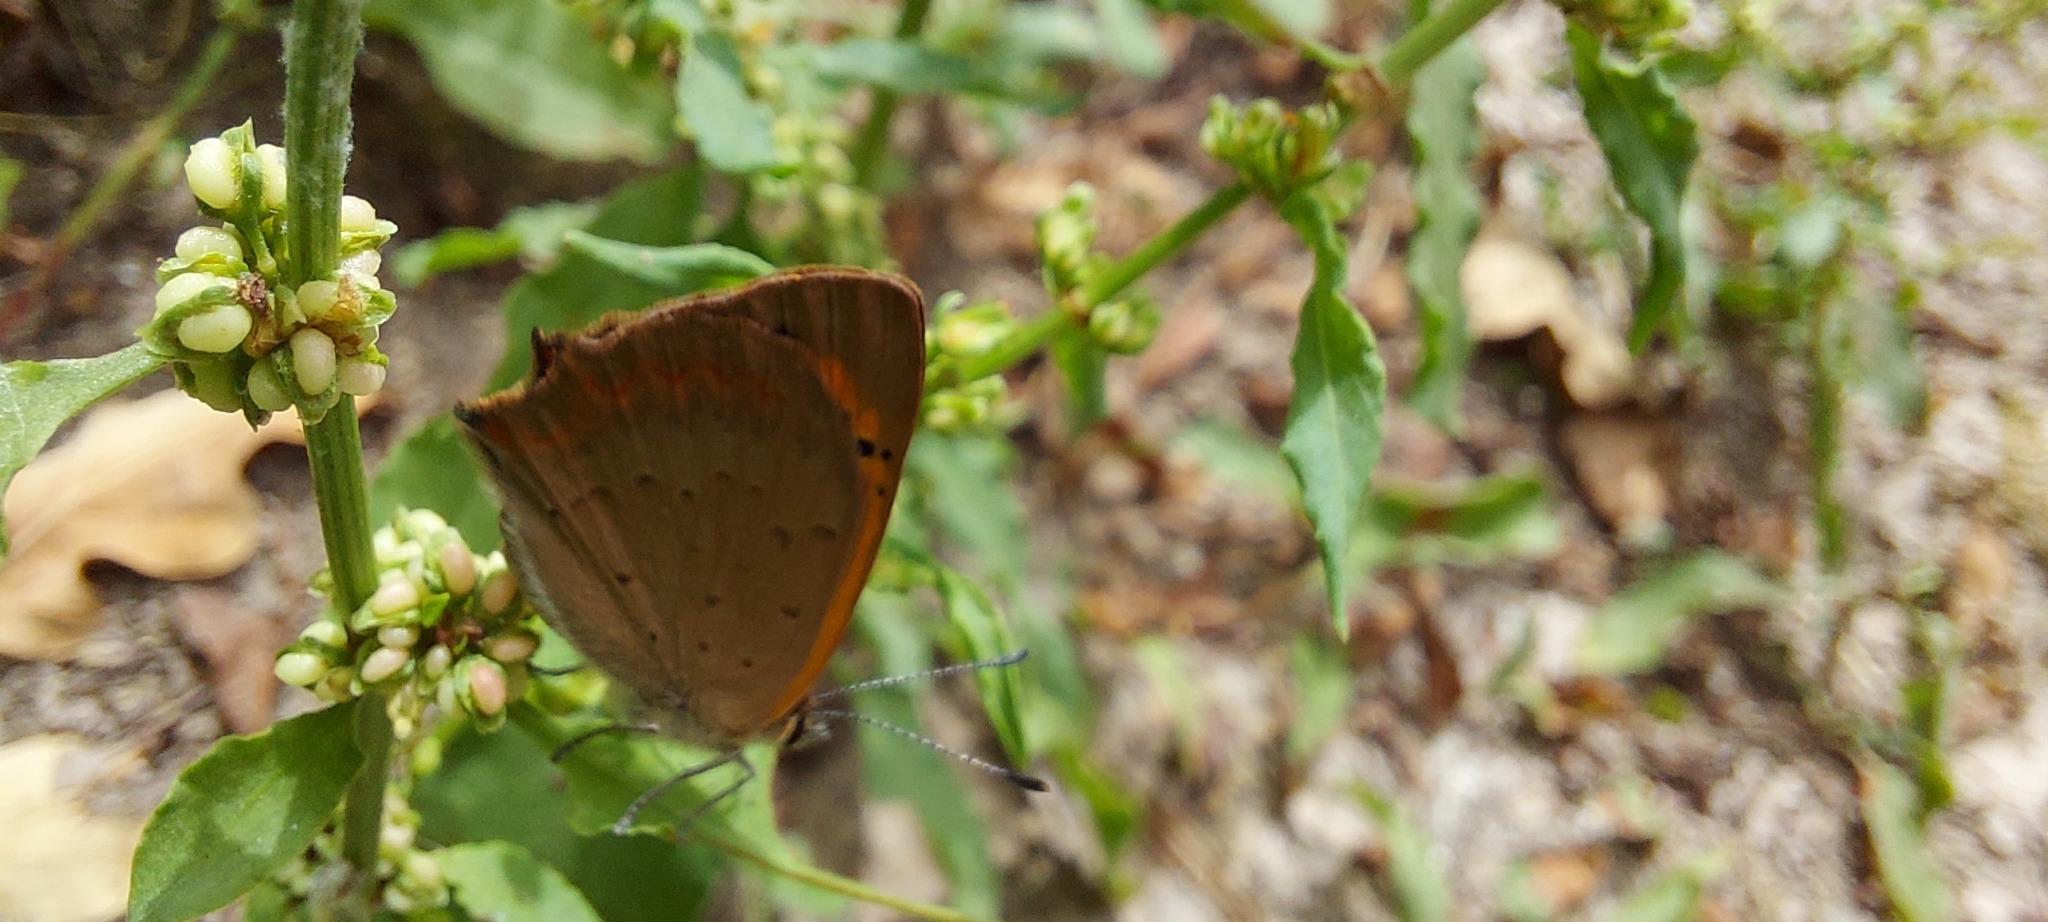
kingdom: Animalia
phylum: Arthropoda
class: Insecta
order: Lepidoptera
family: Lycaenidae
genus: Lycaena
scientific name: Lycaena phlaeas
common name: Small copper
